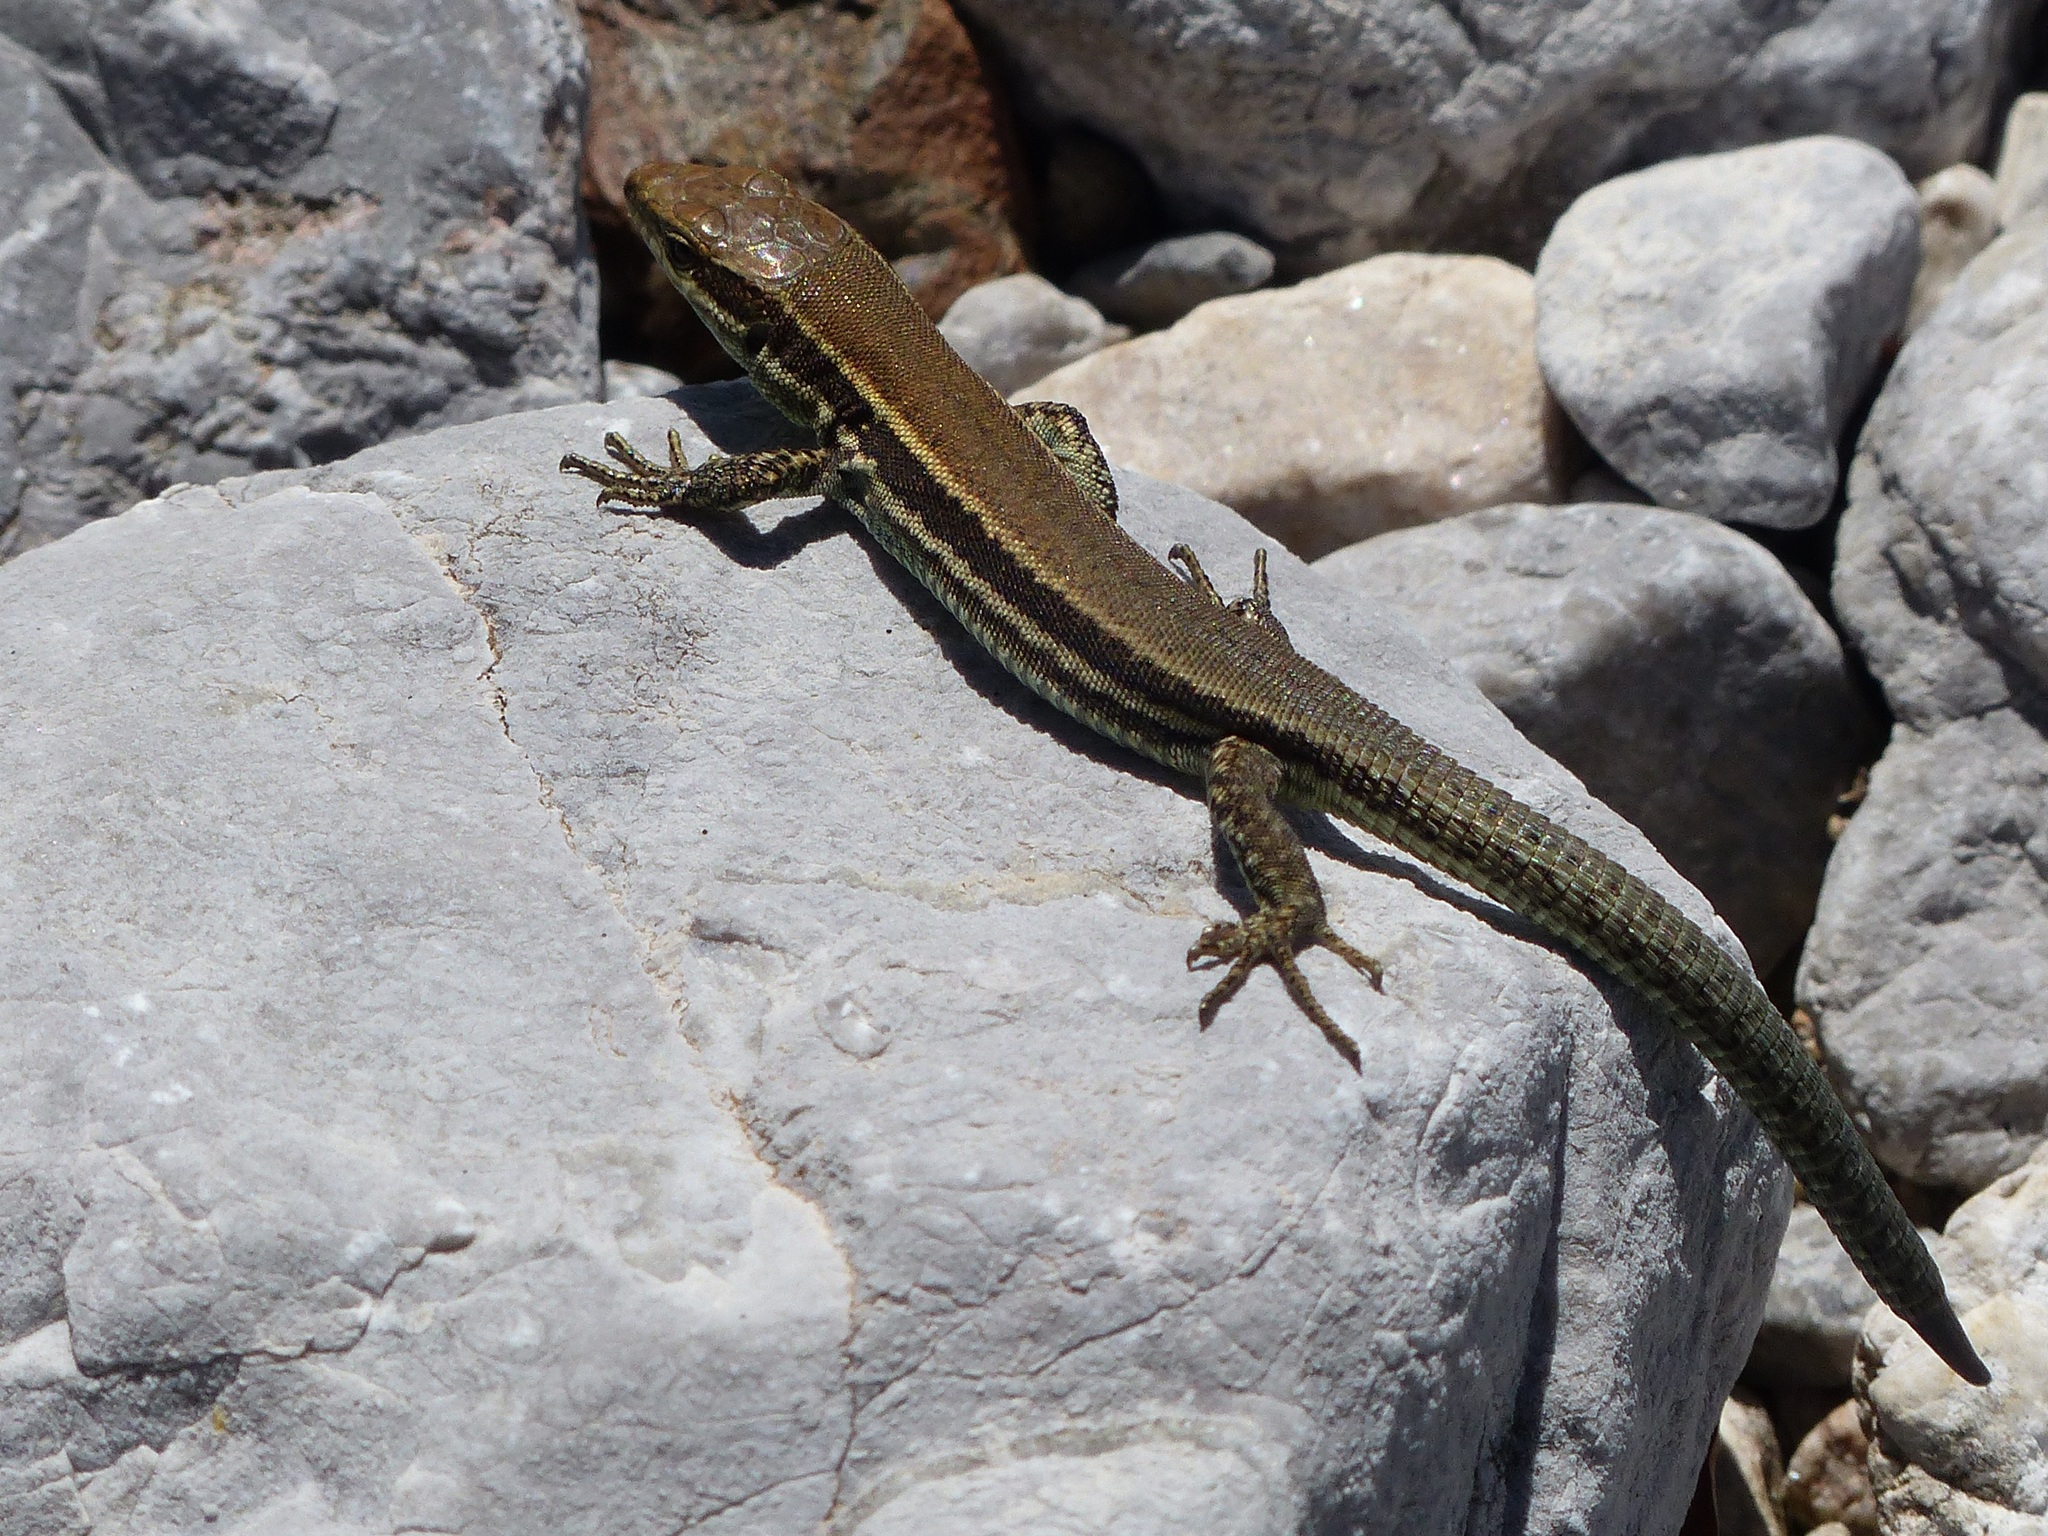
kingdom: Animalia
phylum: Chordata
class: Squamata
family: Lacertidae
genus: Podarcis
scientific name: Podarcis muralis
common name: Common wall lizard
